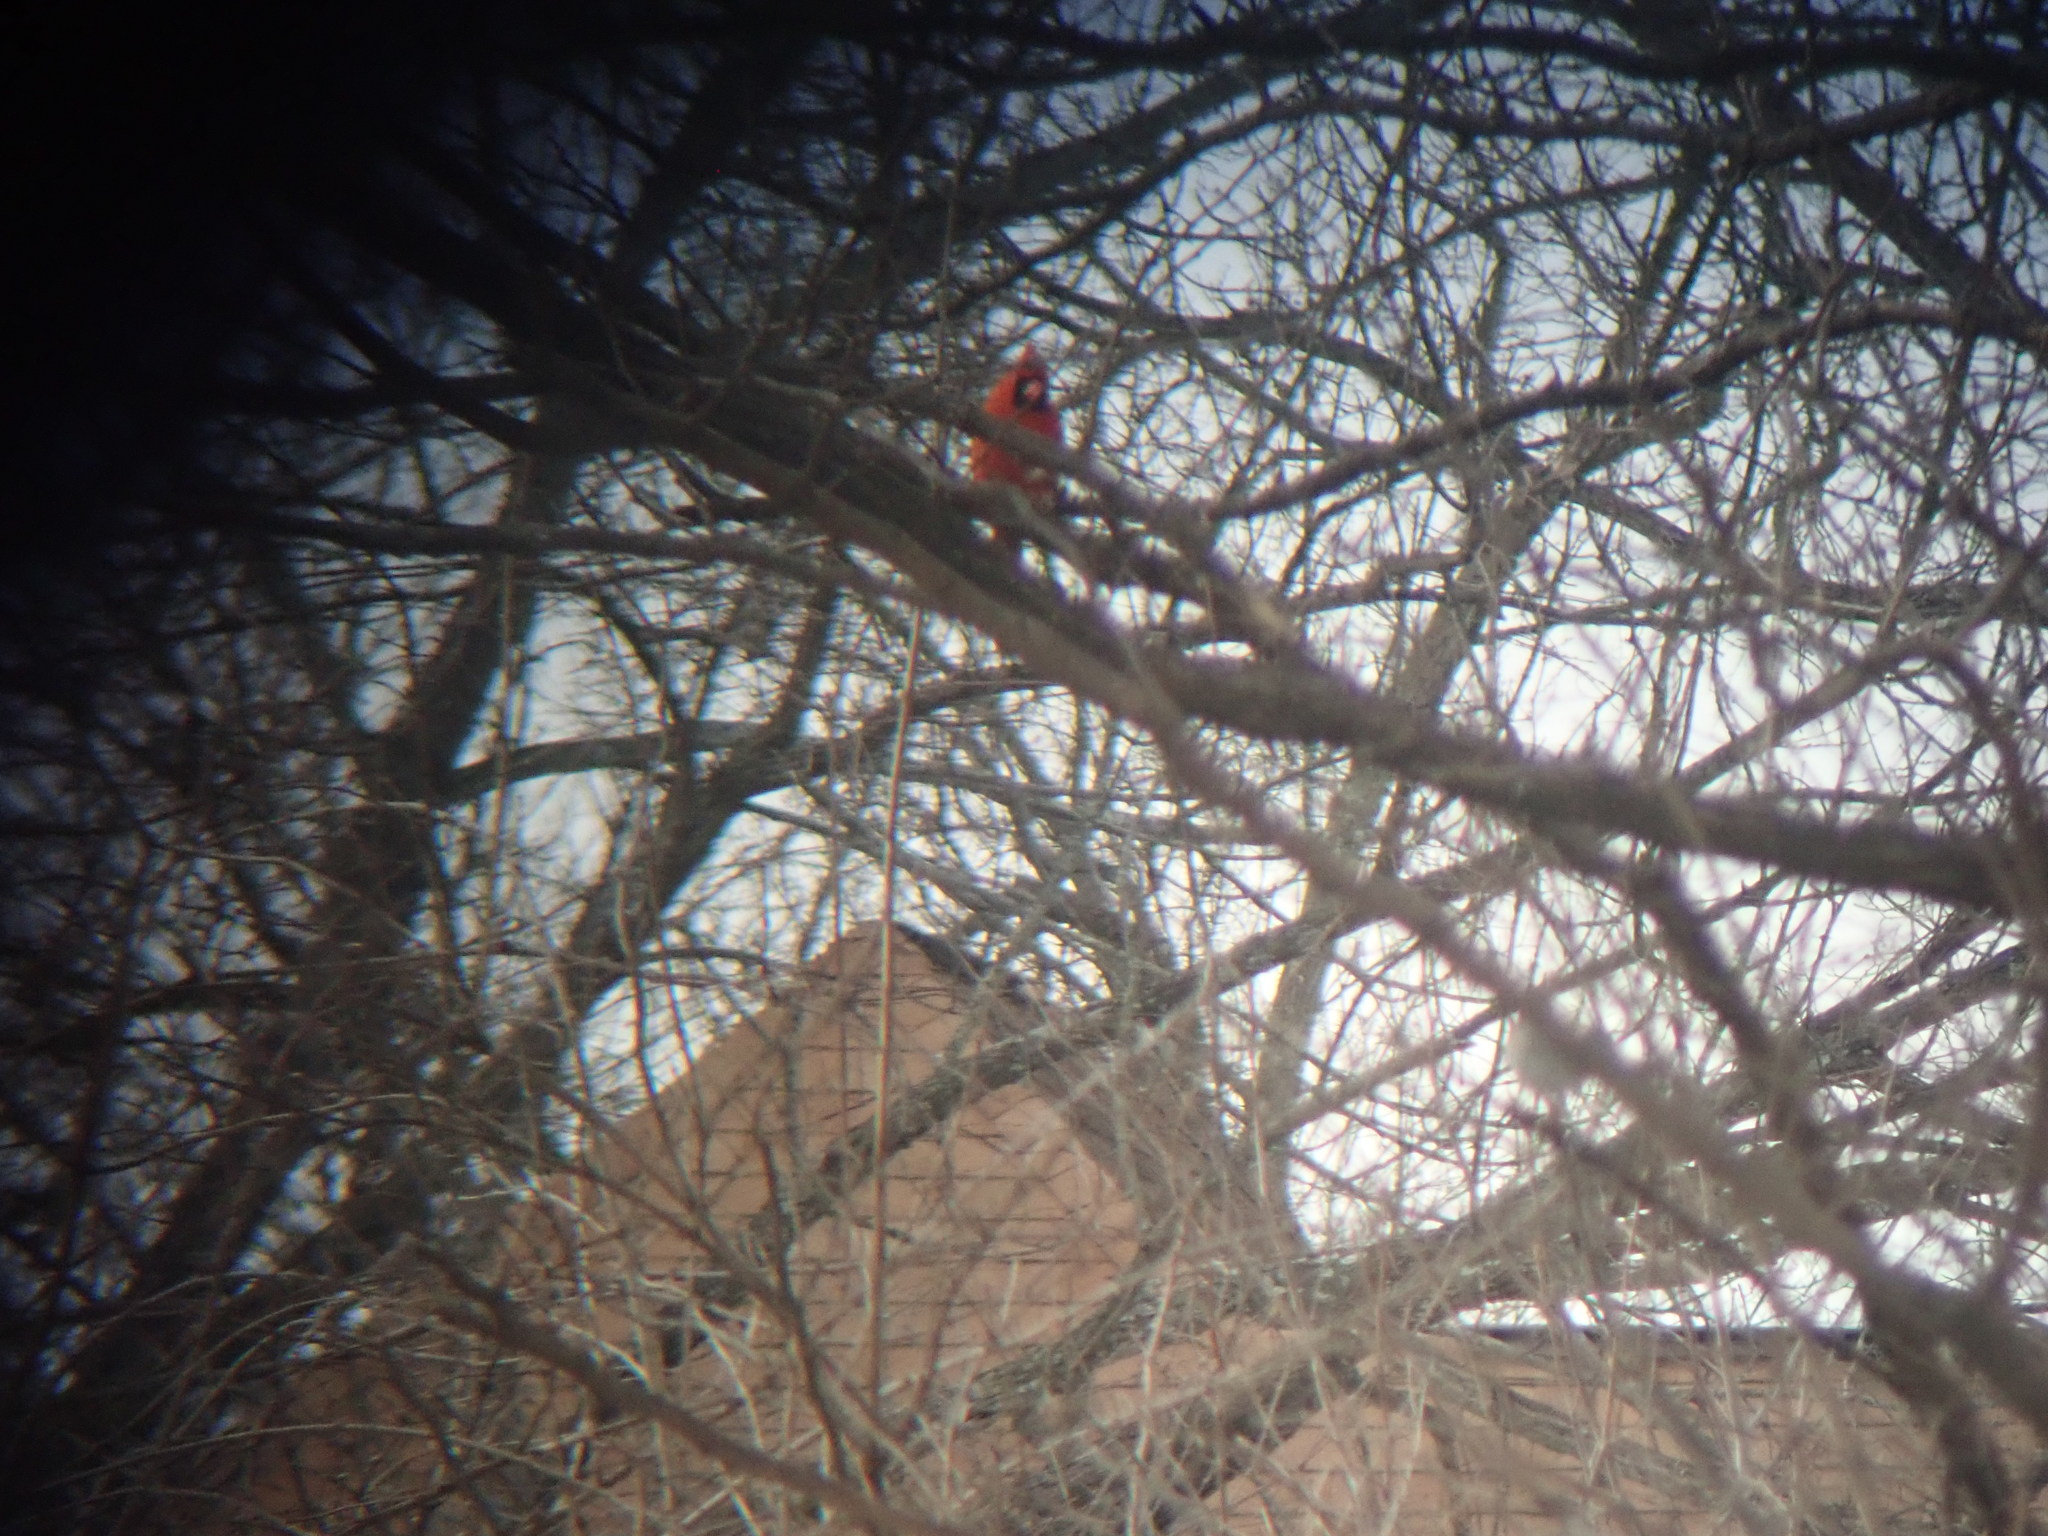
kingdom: Animalia
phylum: Chordata
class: Aves
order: Passeriformes
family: Cardinalidae
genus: Cardinalis
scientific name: Cardinalis cardinalis
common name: Northern cardinal
